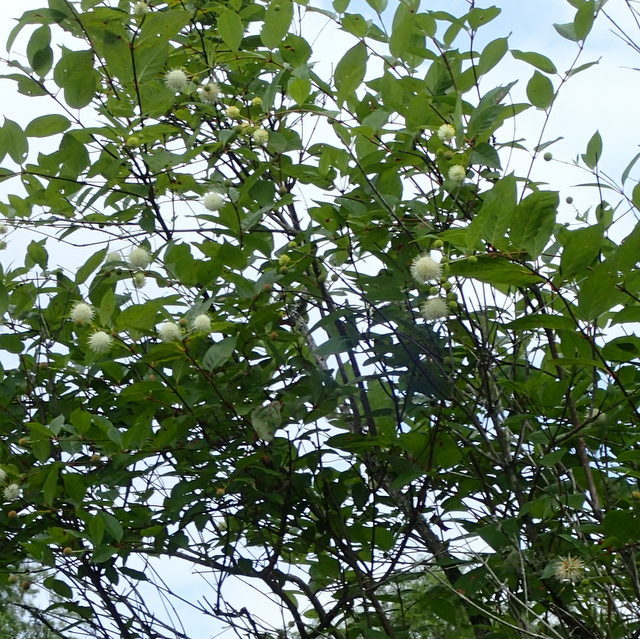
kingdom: Plantae
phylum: Tracheophyta
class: Magnoliopsida
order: Gentianales
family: Rubiaceae
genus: Cephalanthus
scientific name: Cephalanthus occidentalis
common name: Button-willow
